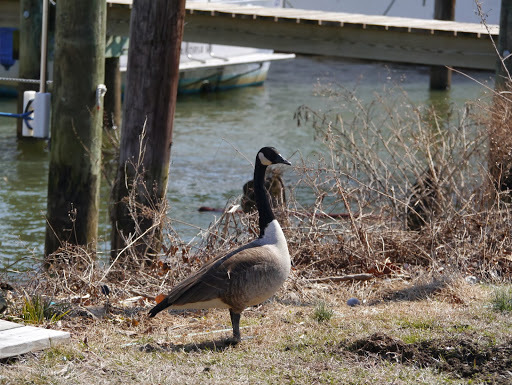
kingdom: Animalia
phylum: Chordata
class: Aves
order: Anseriformes
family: Anatidae
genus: Branta
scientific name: Branta canadensis
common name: Canada goose
